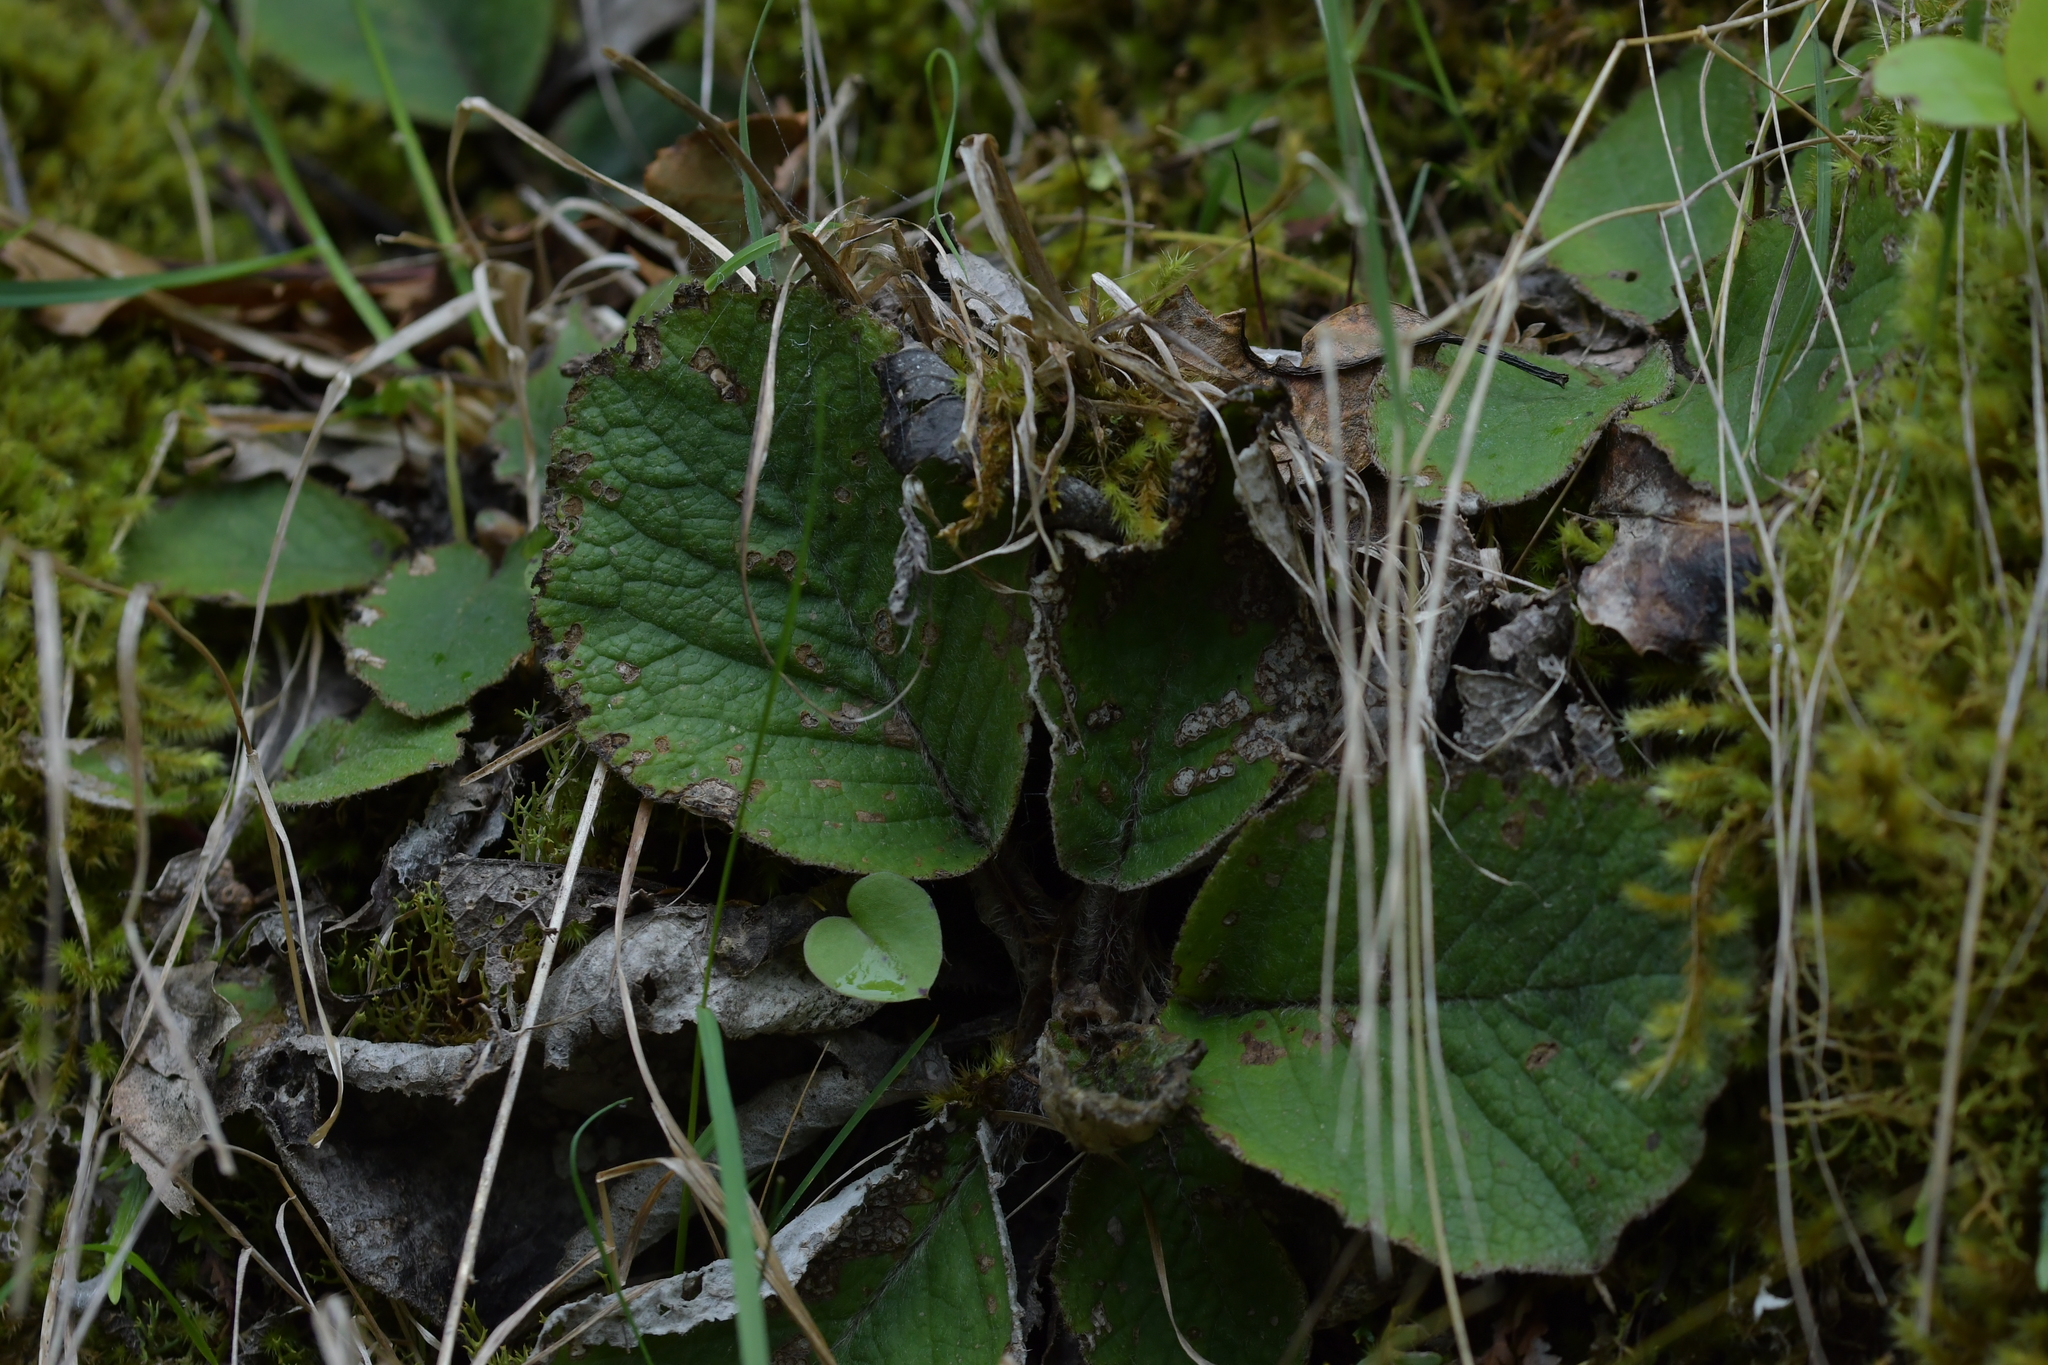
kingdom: Plantae
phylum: Tracheophyta
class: Magnoliopsida
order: Asterales
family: Asteraceae
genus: Brachyglottis
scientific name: Brachyglottis lagopus
